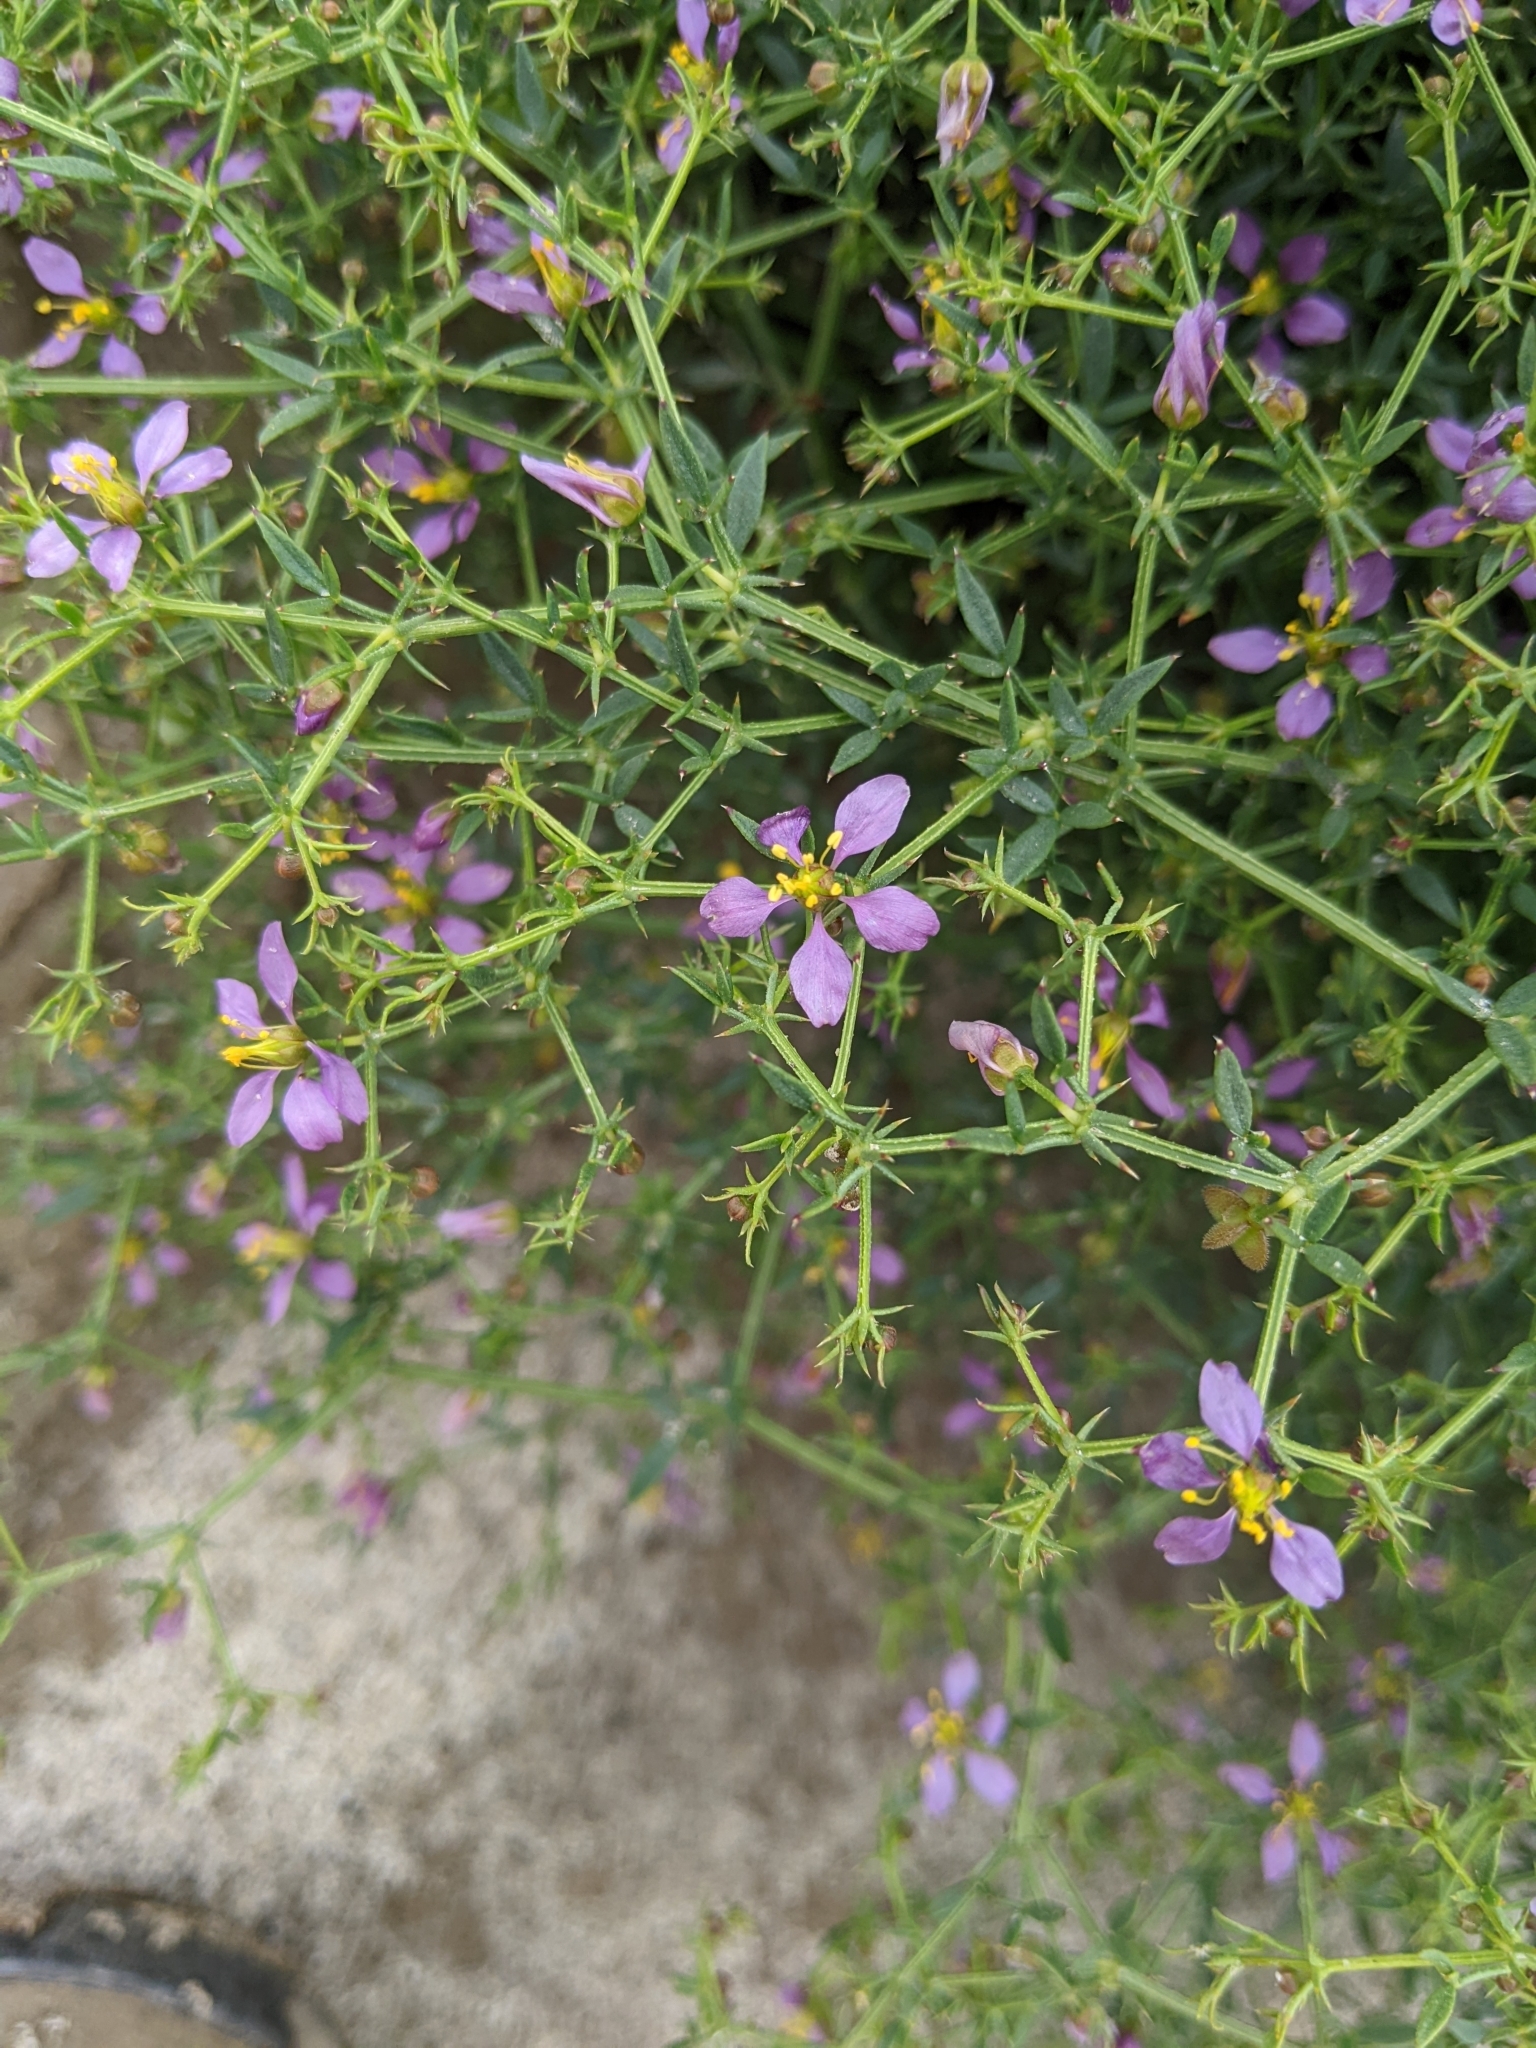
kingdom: Plantae
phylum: Tracheophyta
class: Magnoliopsida
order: Zygophyllales
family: Zygophyllaceae
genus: Fagonia
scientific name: Fagonia laevis
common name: California fagonbush
